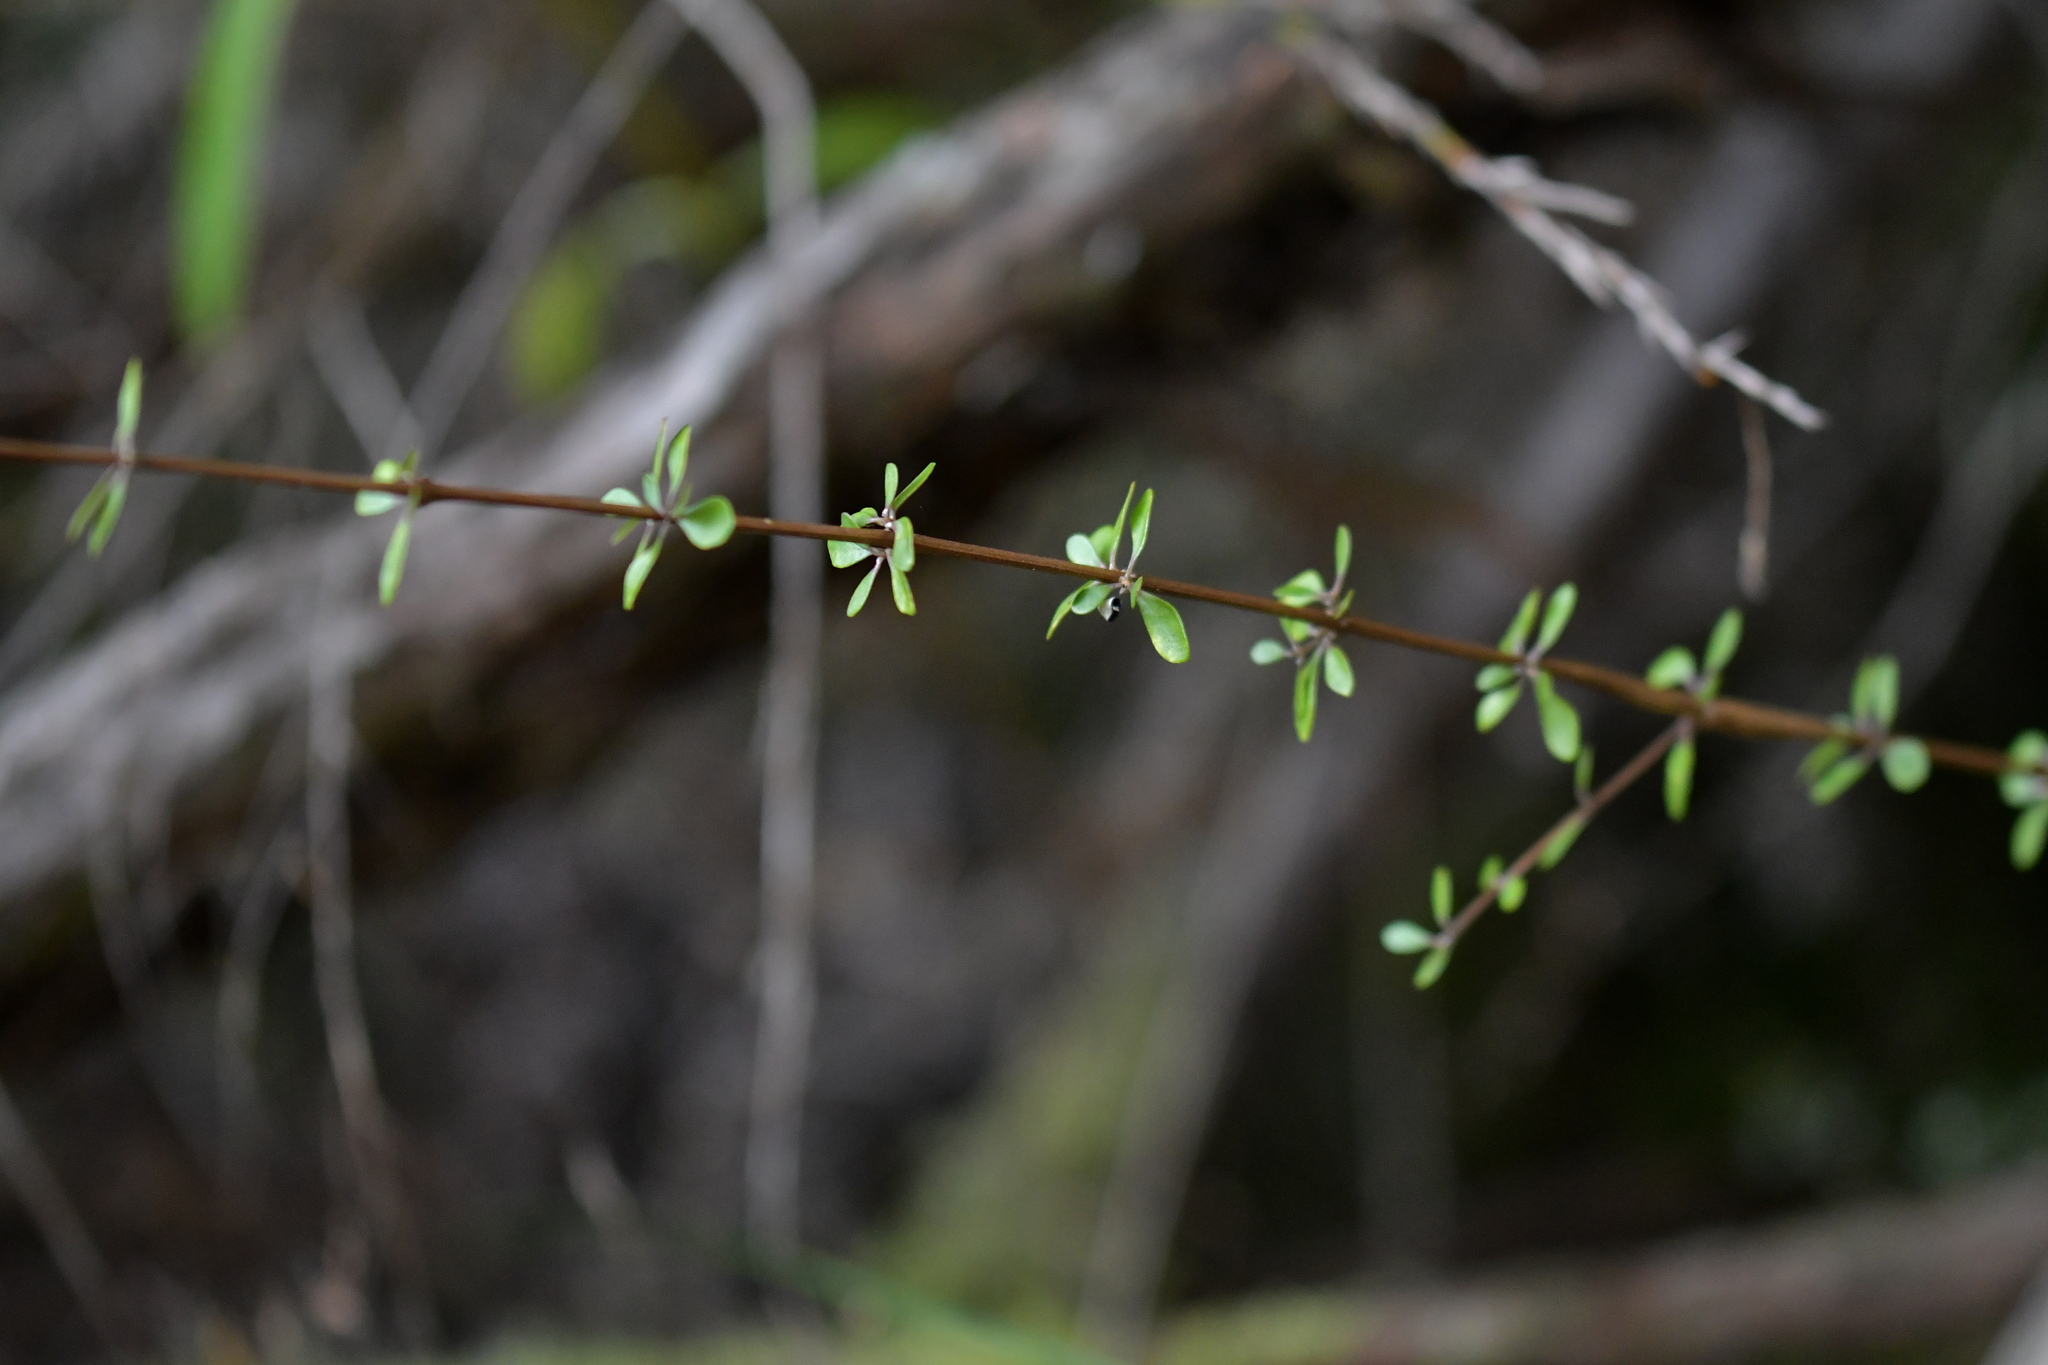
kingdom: Plantae
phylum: Tracheophyta
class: Magnoliopsida
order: Asterales
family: Asteraceae
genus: Olearia
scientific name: Olearia virgata
